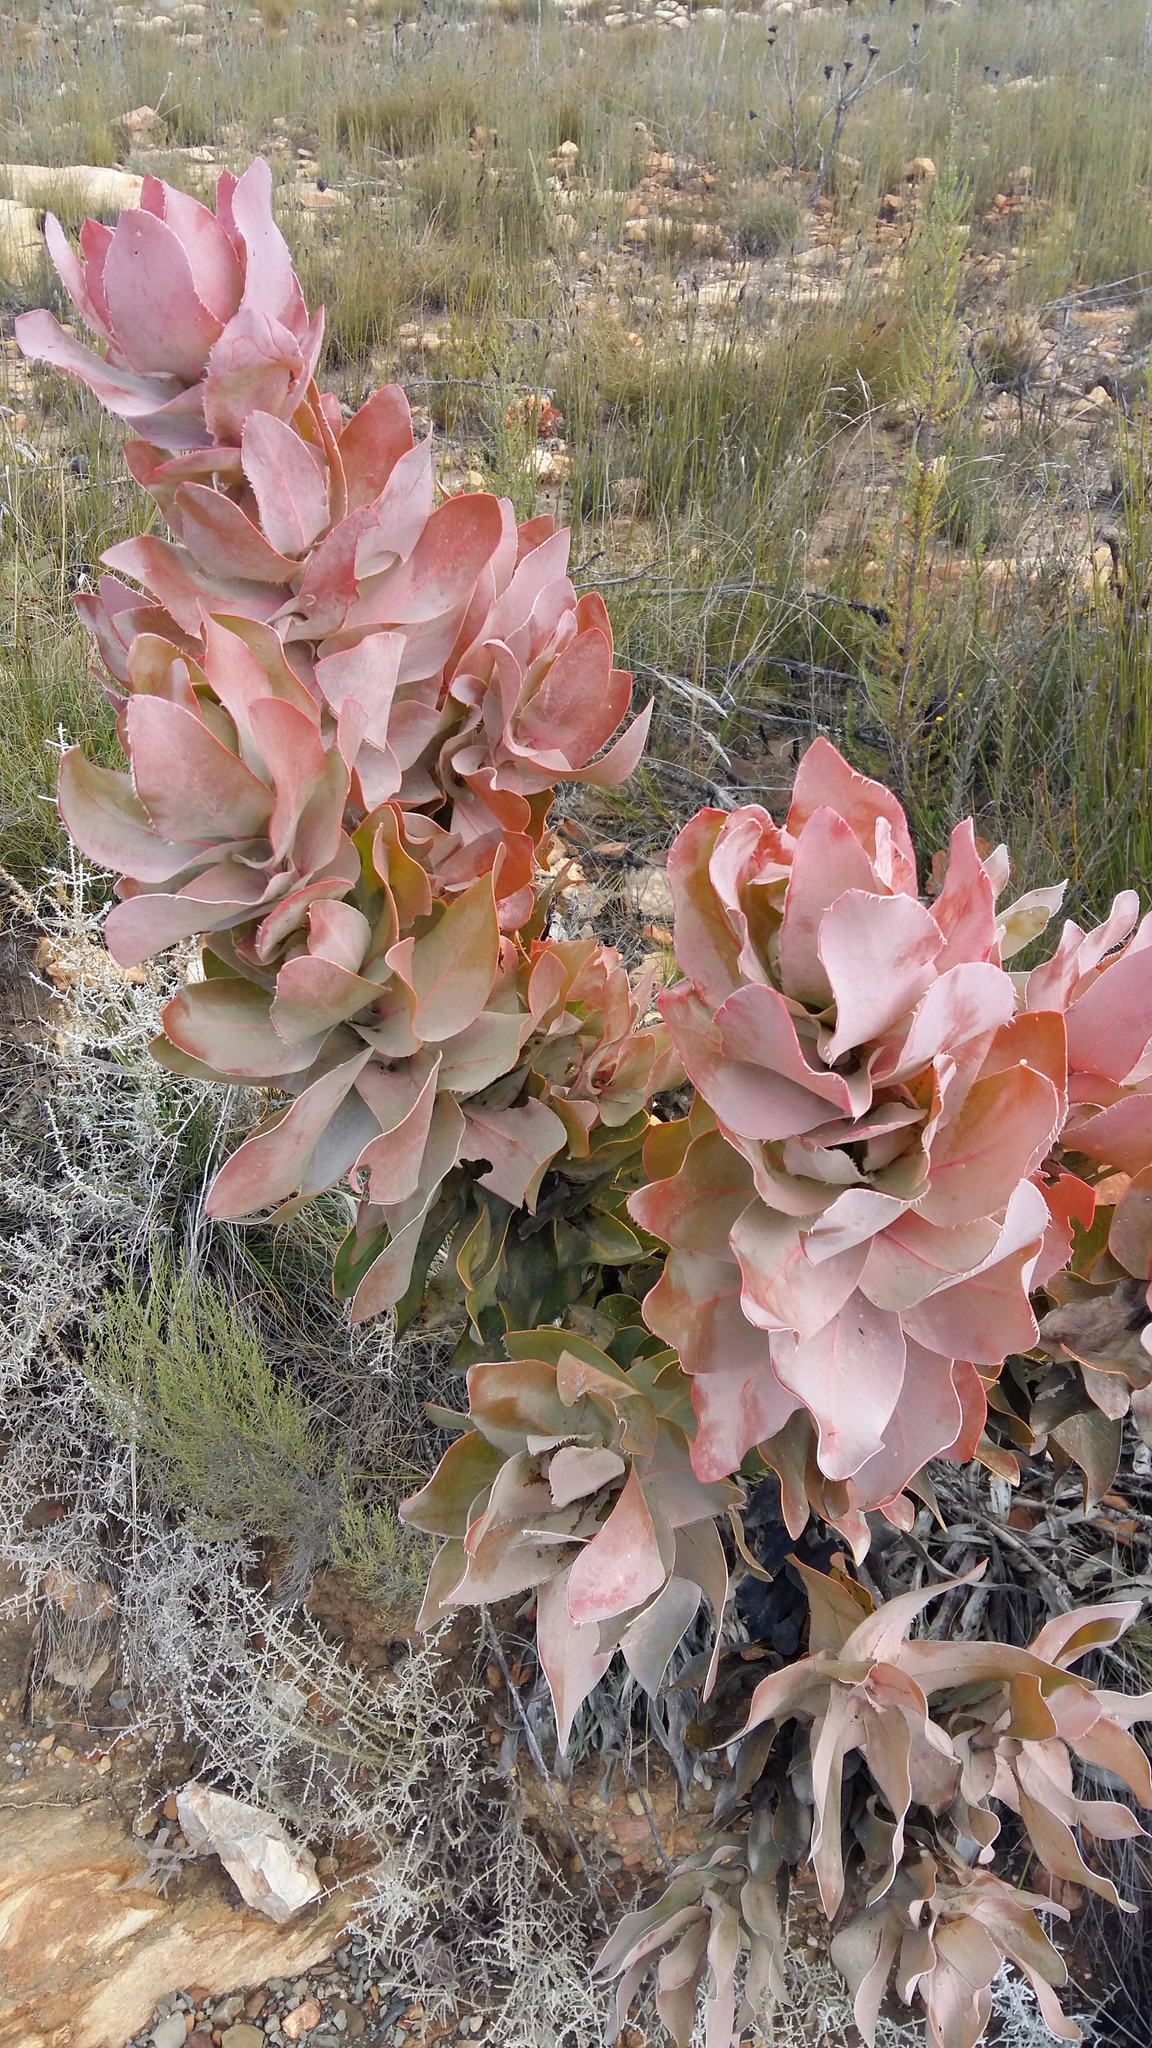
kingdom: Plantae
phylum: Tracheophyta
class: Magnoliopsida
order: Proteales
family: Proteaceae
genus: Protea
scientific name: Protea eximia
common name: Broad-leaved sugarbush
